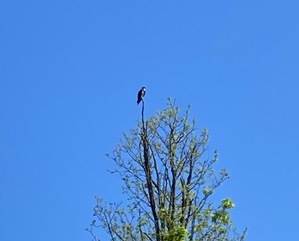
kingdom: Animalia
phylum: Chordata
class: Aves
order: Accipitriformes
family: Pandionidae
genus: Pandion
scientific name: Pandion haliaetus
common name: Osprey
